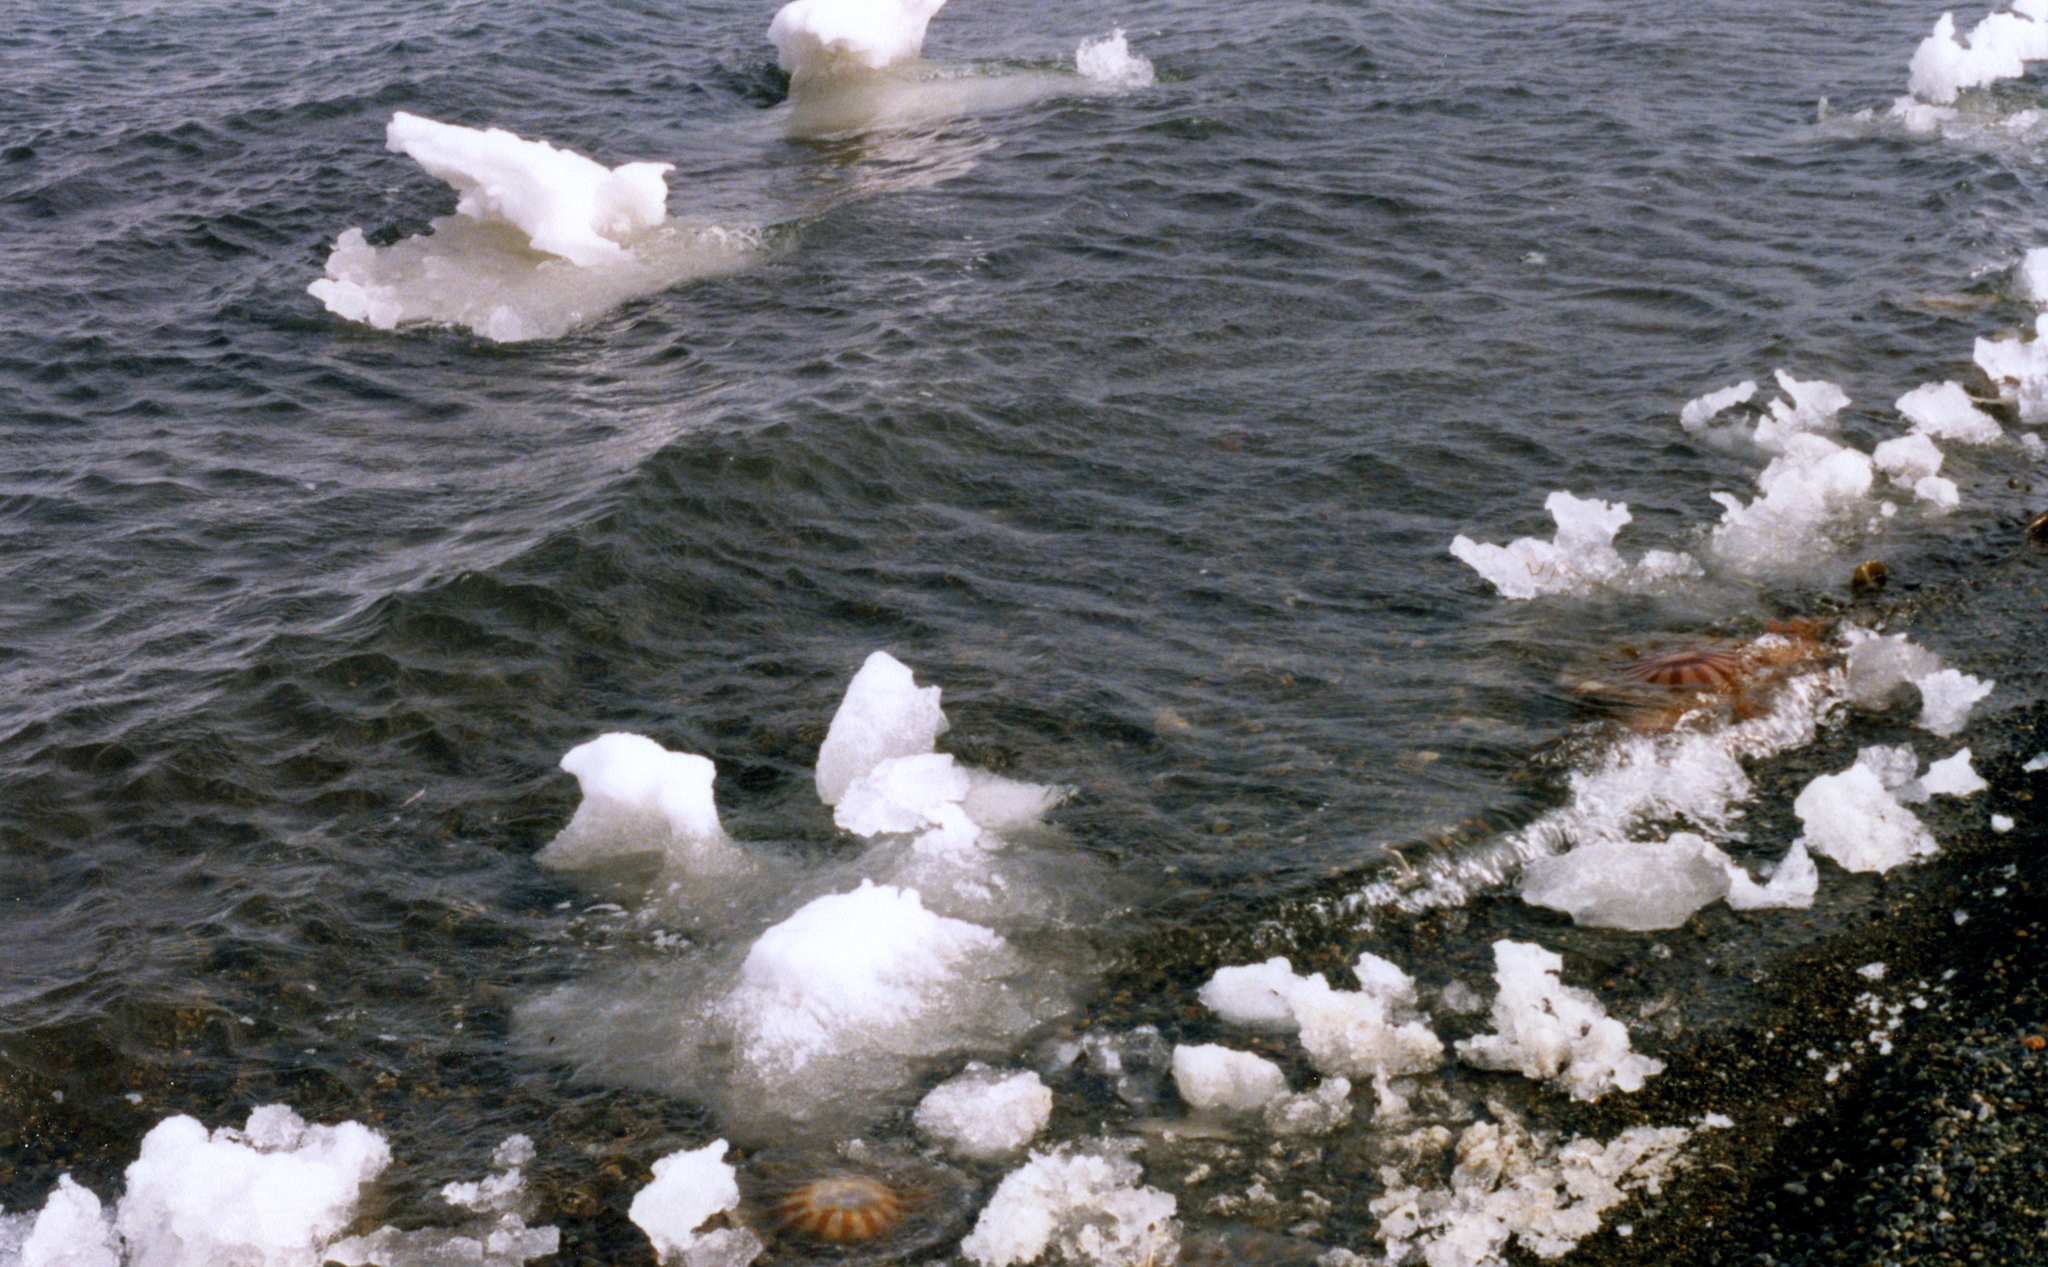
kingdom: Animalia
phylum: Cnidaria
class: Scyphozoa
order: Semaeostomeae
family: Pelagiidae
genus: Chrysaora
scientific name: Chrysaora melanaster
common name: Northern sea nettle
